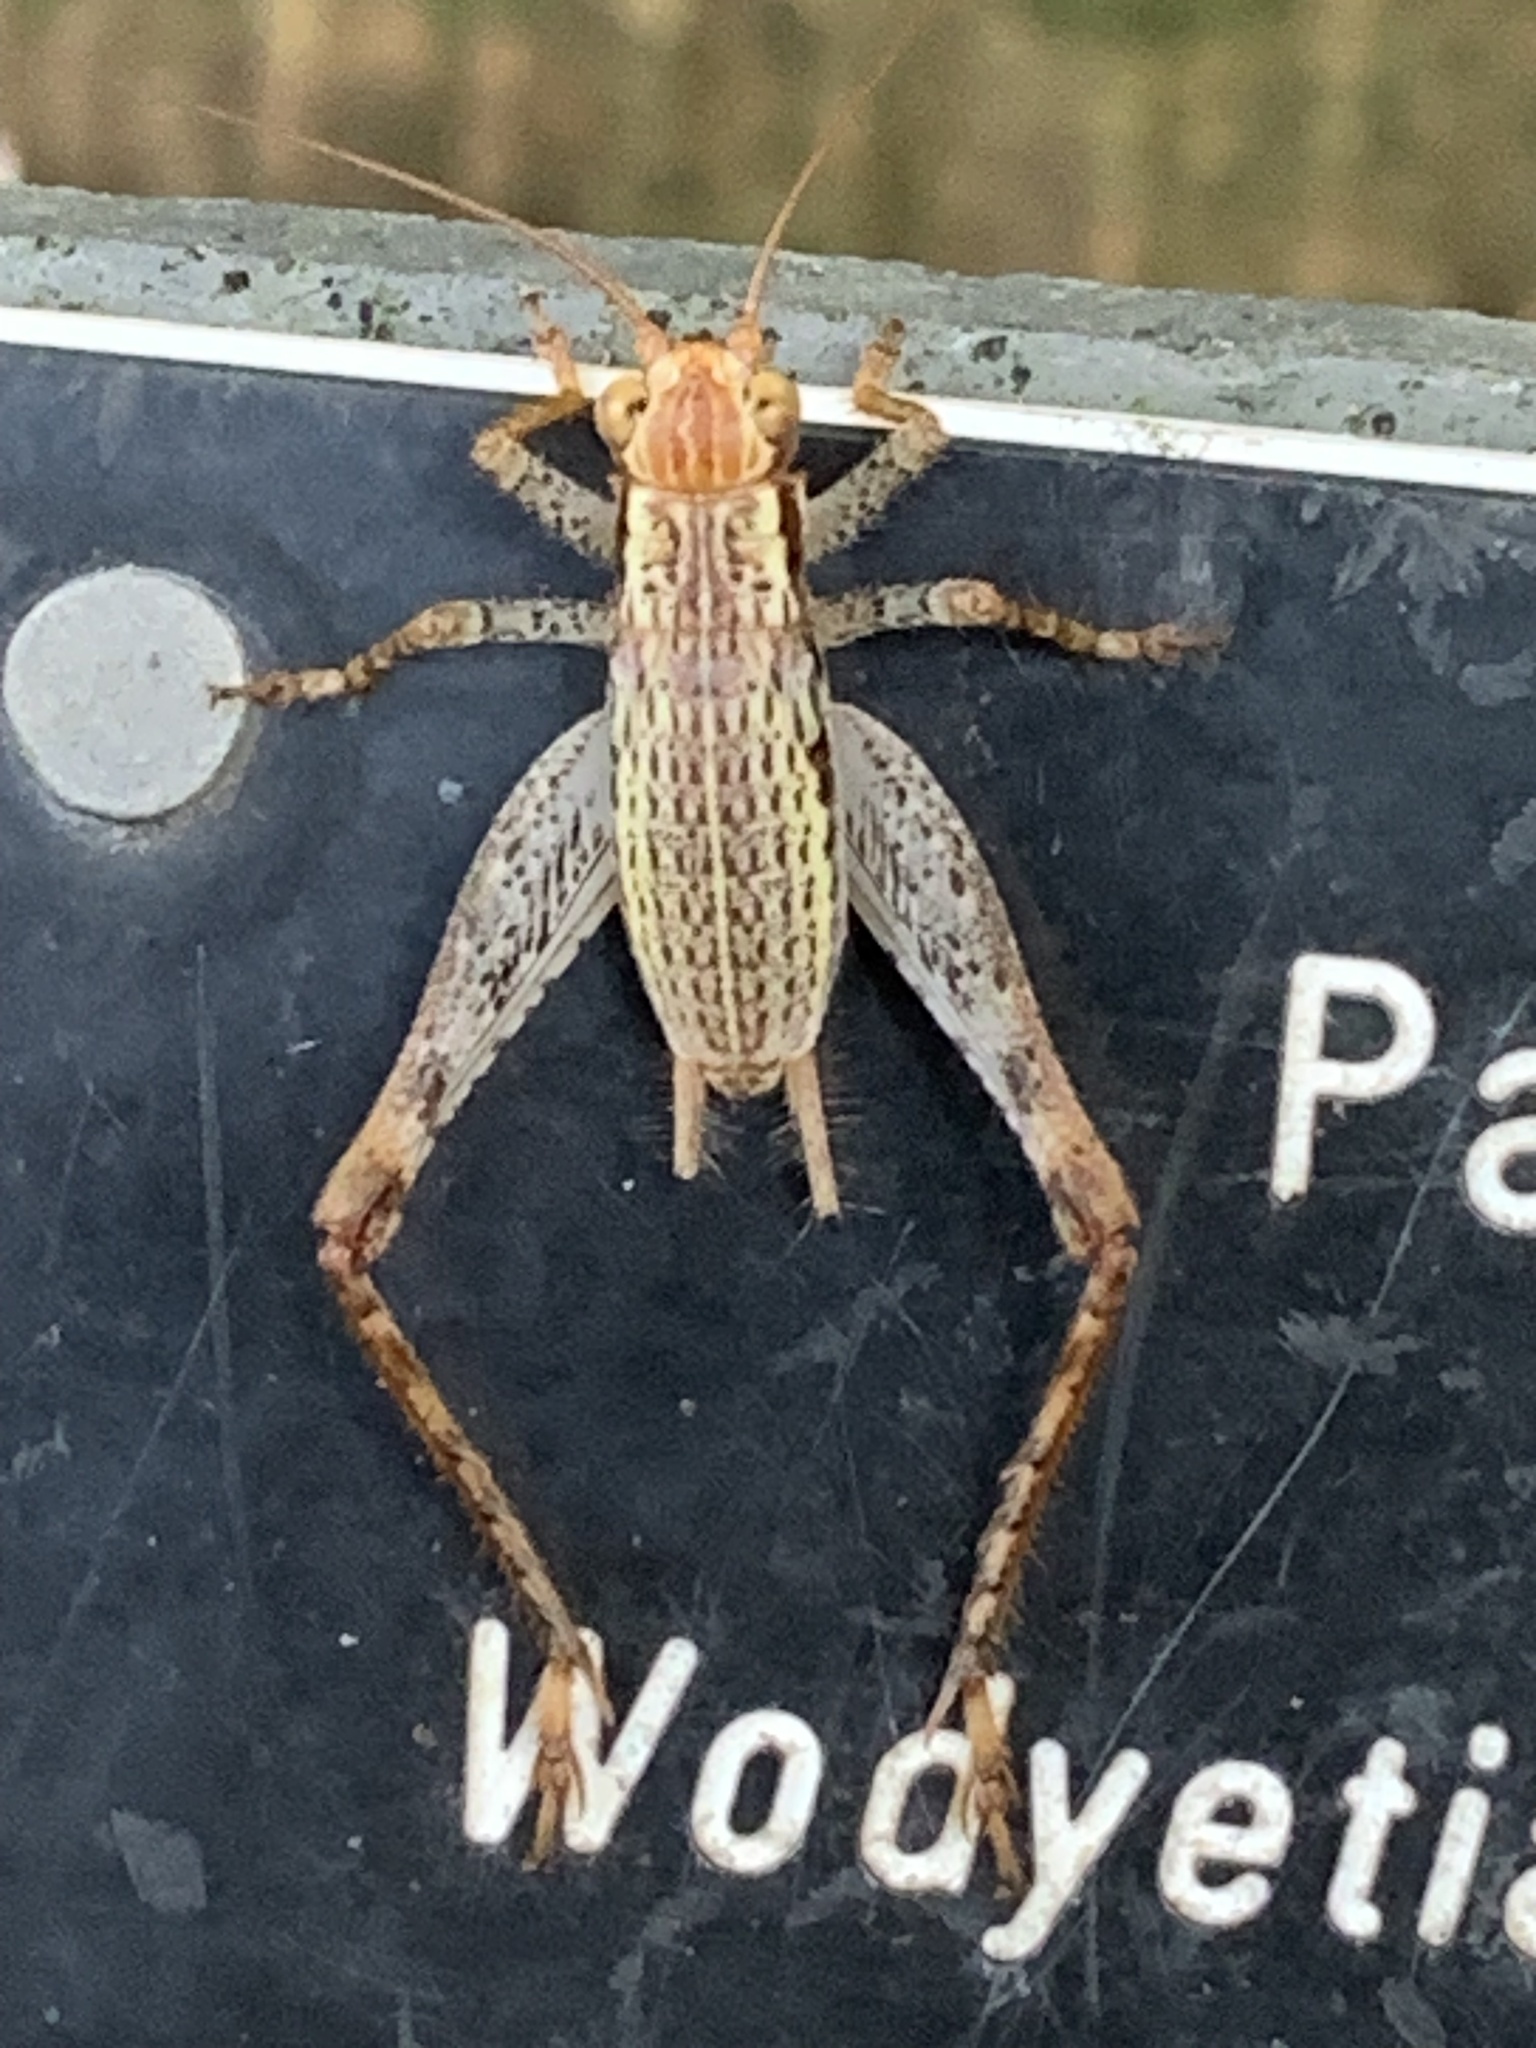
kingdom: Animalia
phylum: Arthropoda
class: Insecta
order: Orthoptera
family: Gryllidae
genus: Cardiodactylus
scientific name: Cardiodactylus novaeguineae
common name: Sad cricket
